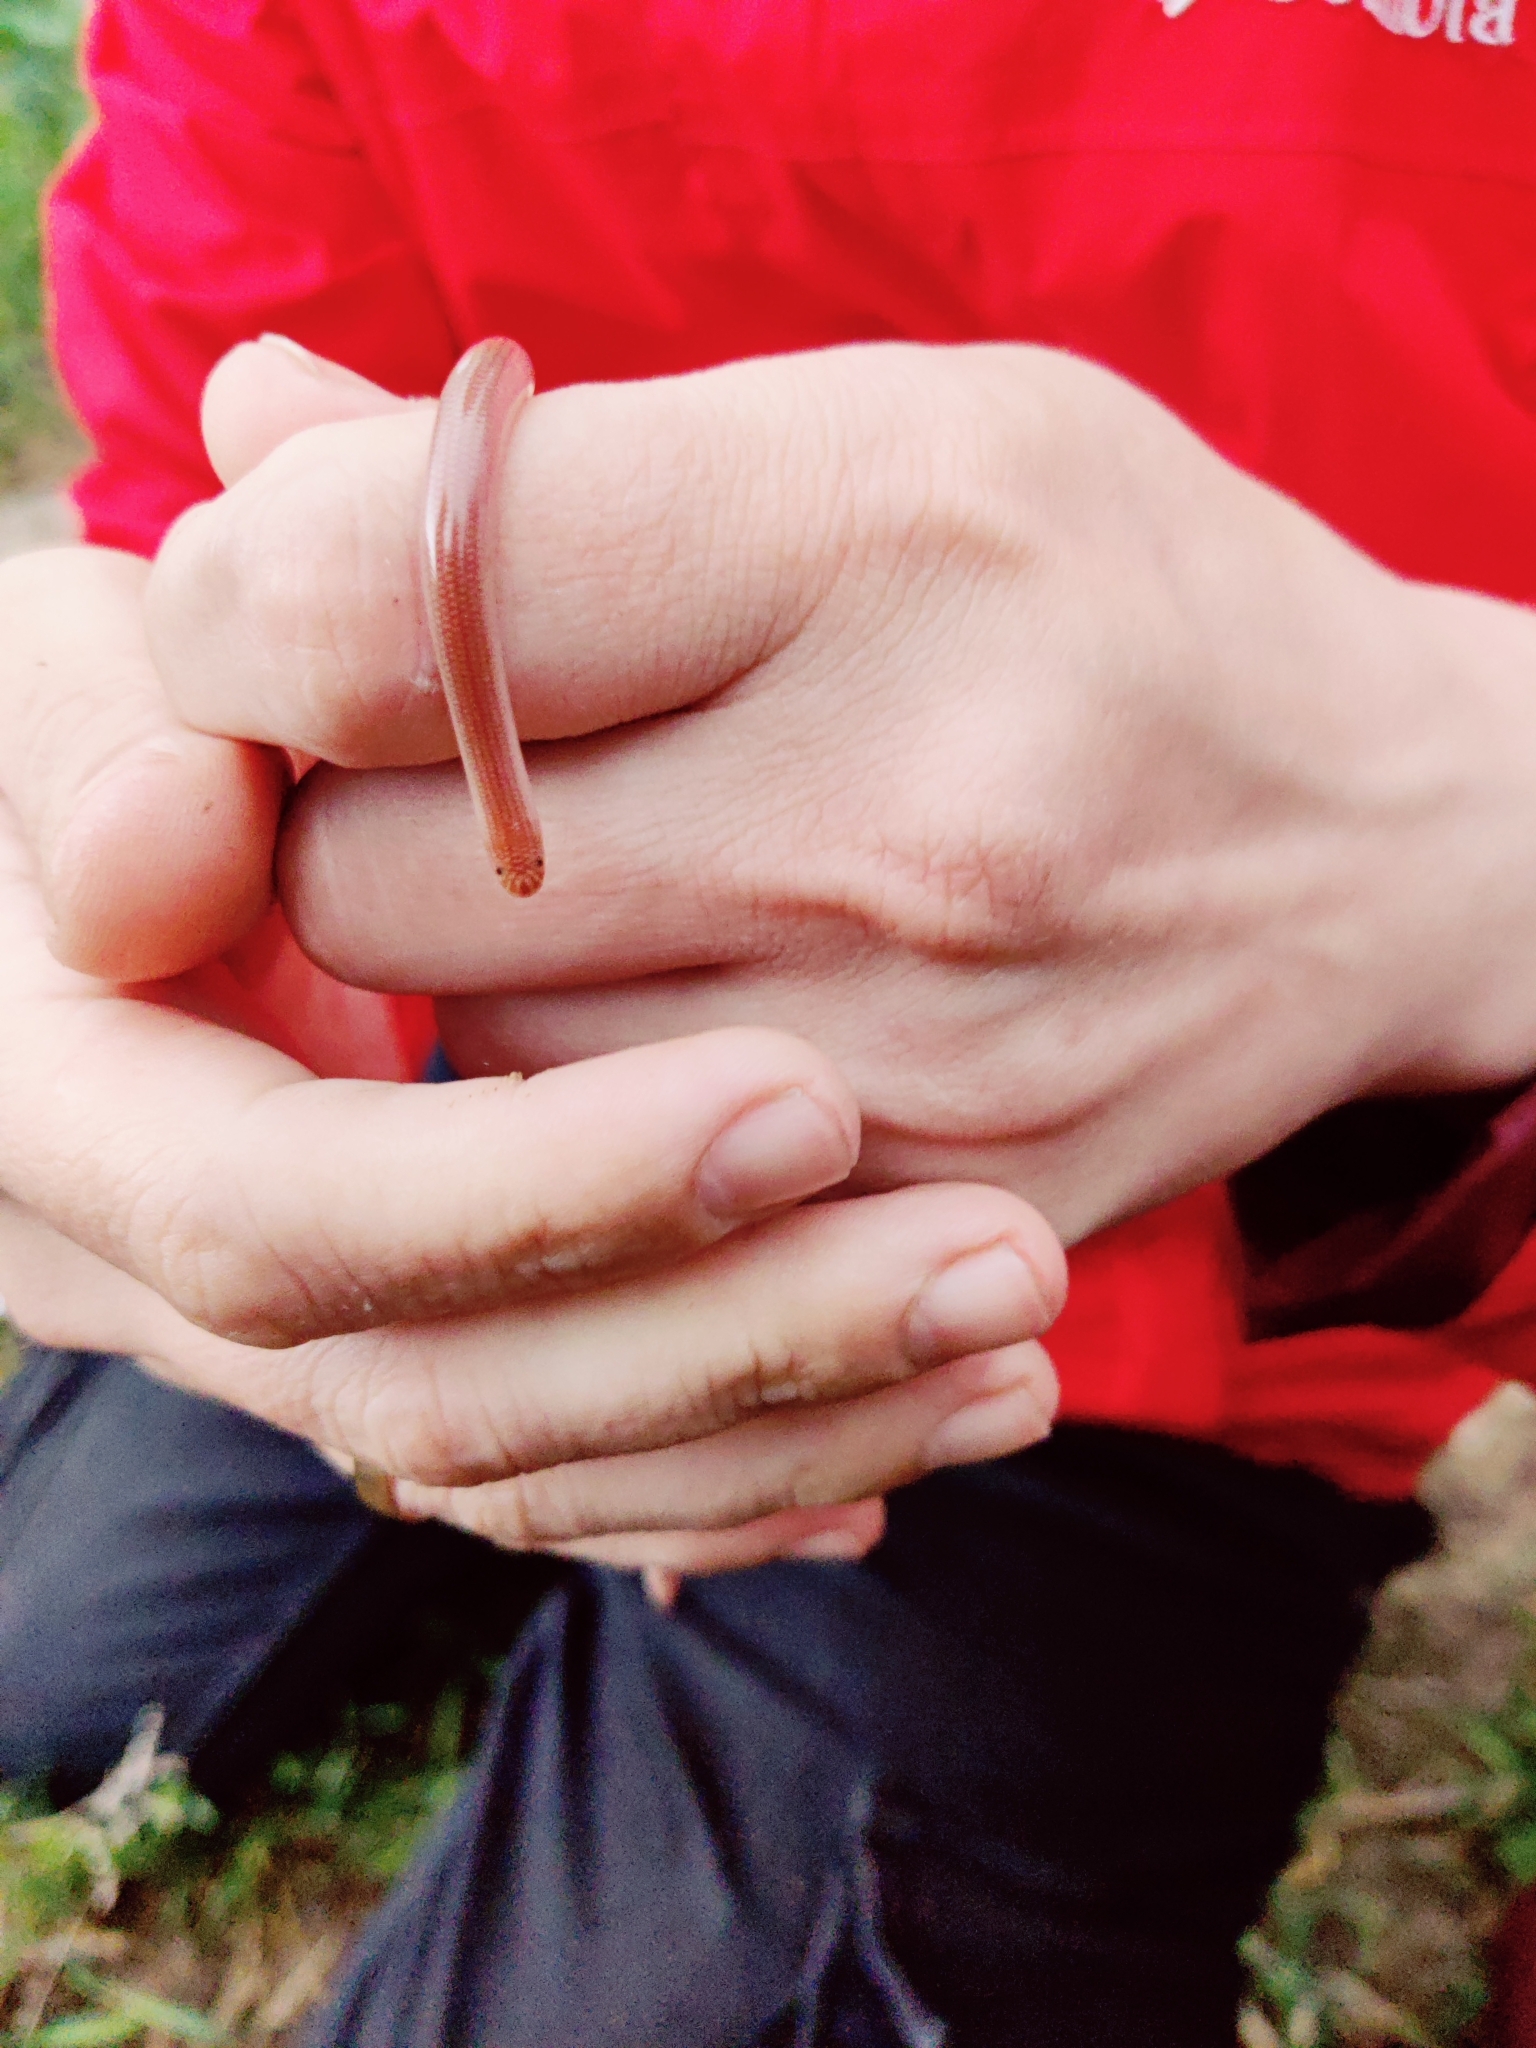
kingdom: Animalia
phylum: Chordata
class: Squamata
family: Typhlopidae
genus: Xerotyphlops
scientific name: Xerotyphlops vermicularis
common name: Eurasian blind snake
